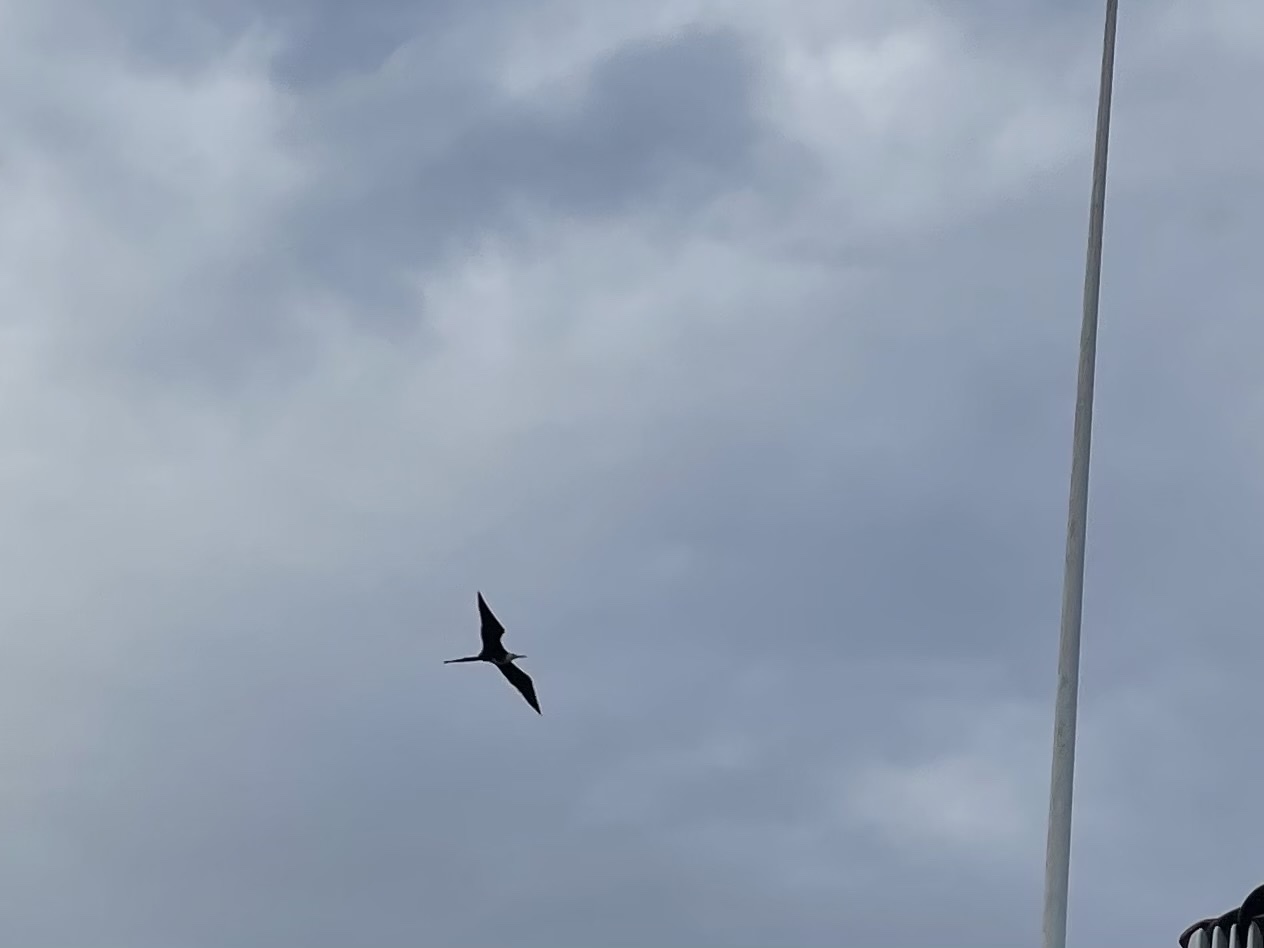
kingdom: Animalia
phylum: Chordata
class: Aves
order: Suliformes
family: Fregatidae
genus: Fregata
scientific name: Fregata magnificens
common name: Magnificent frigatebird
